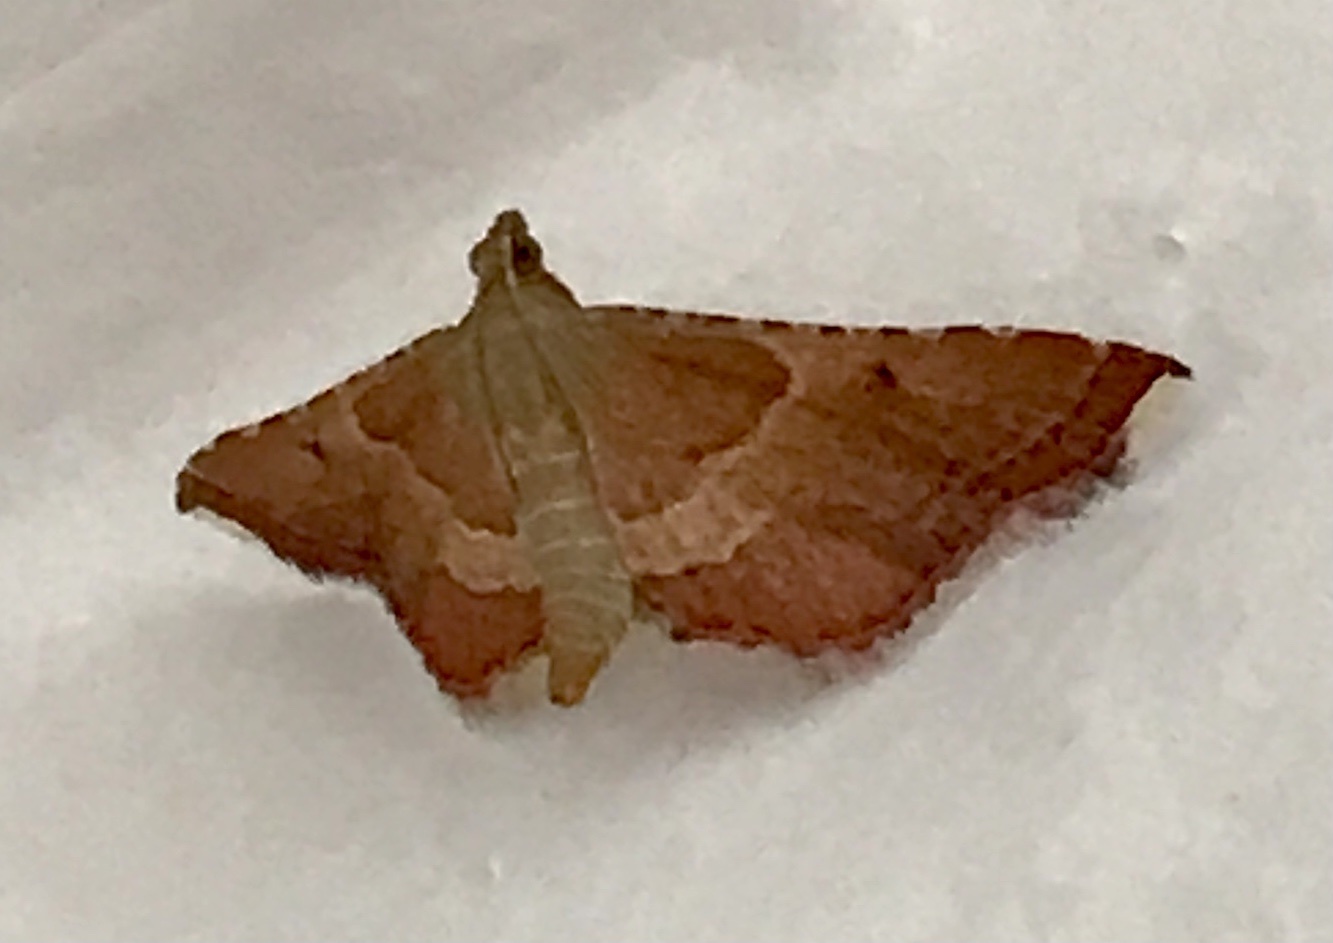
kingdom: Animalia
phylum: Arthropoda
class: Insecta
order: Lepidoptera
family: Pyralidae
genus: Endotricha
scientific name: Endotricha flammealis
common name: Rosy tabby
